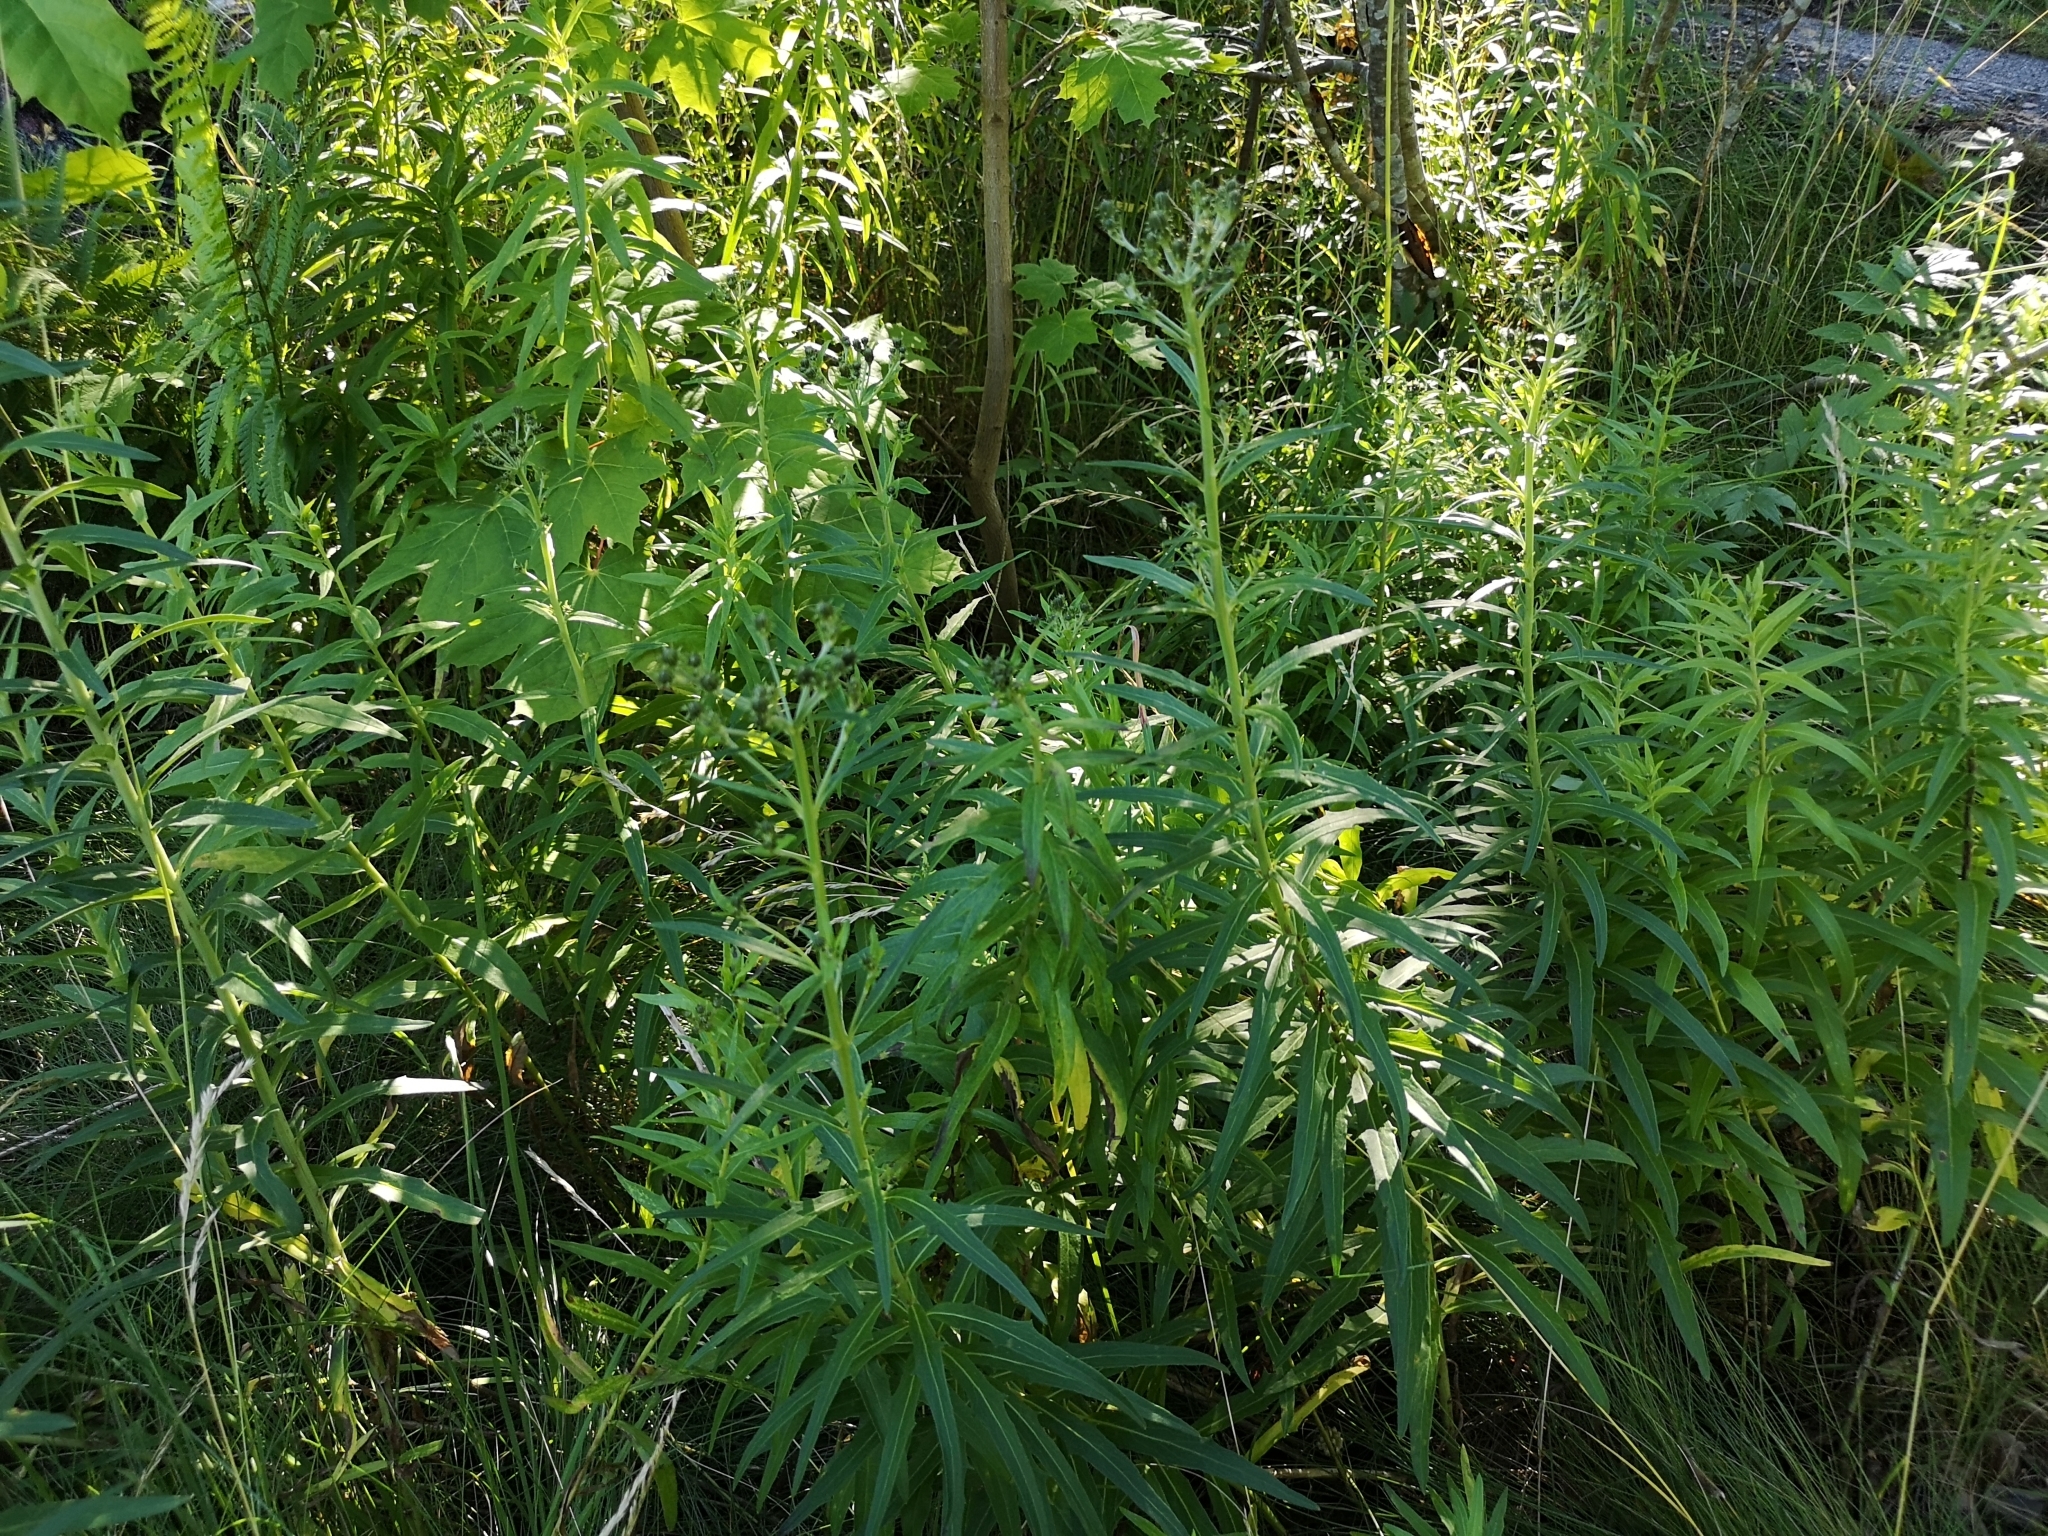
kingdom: Plantae
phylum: Tracheophyta
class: Magnoliopsida
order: Asterales
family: Asteraceae
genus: Hieracium
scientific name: Hieracium umbellatum
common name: Northern hawkweed
